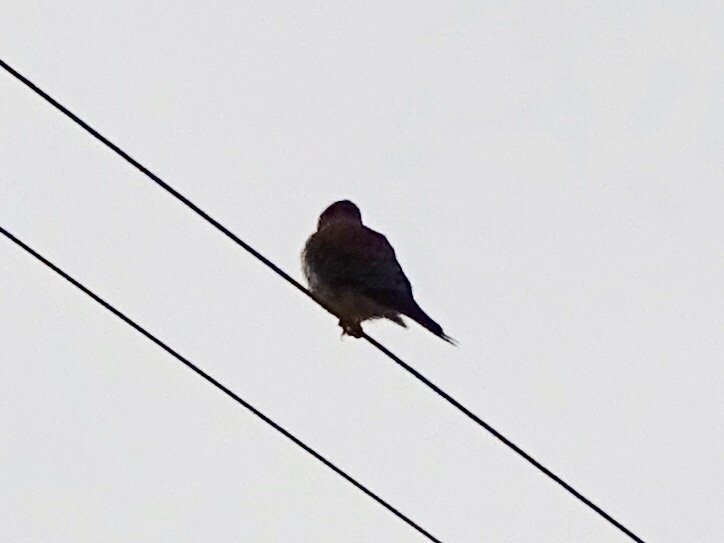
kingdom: Animalia
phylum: Chordata
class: Aves
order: Falconiformes
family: Falconidae
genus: Falco
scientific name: Falco sparverius
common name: American kestrel
